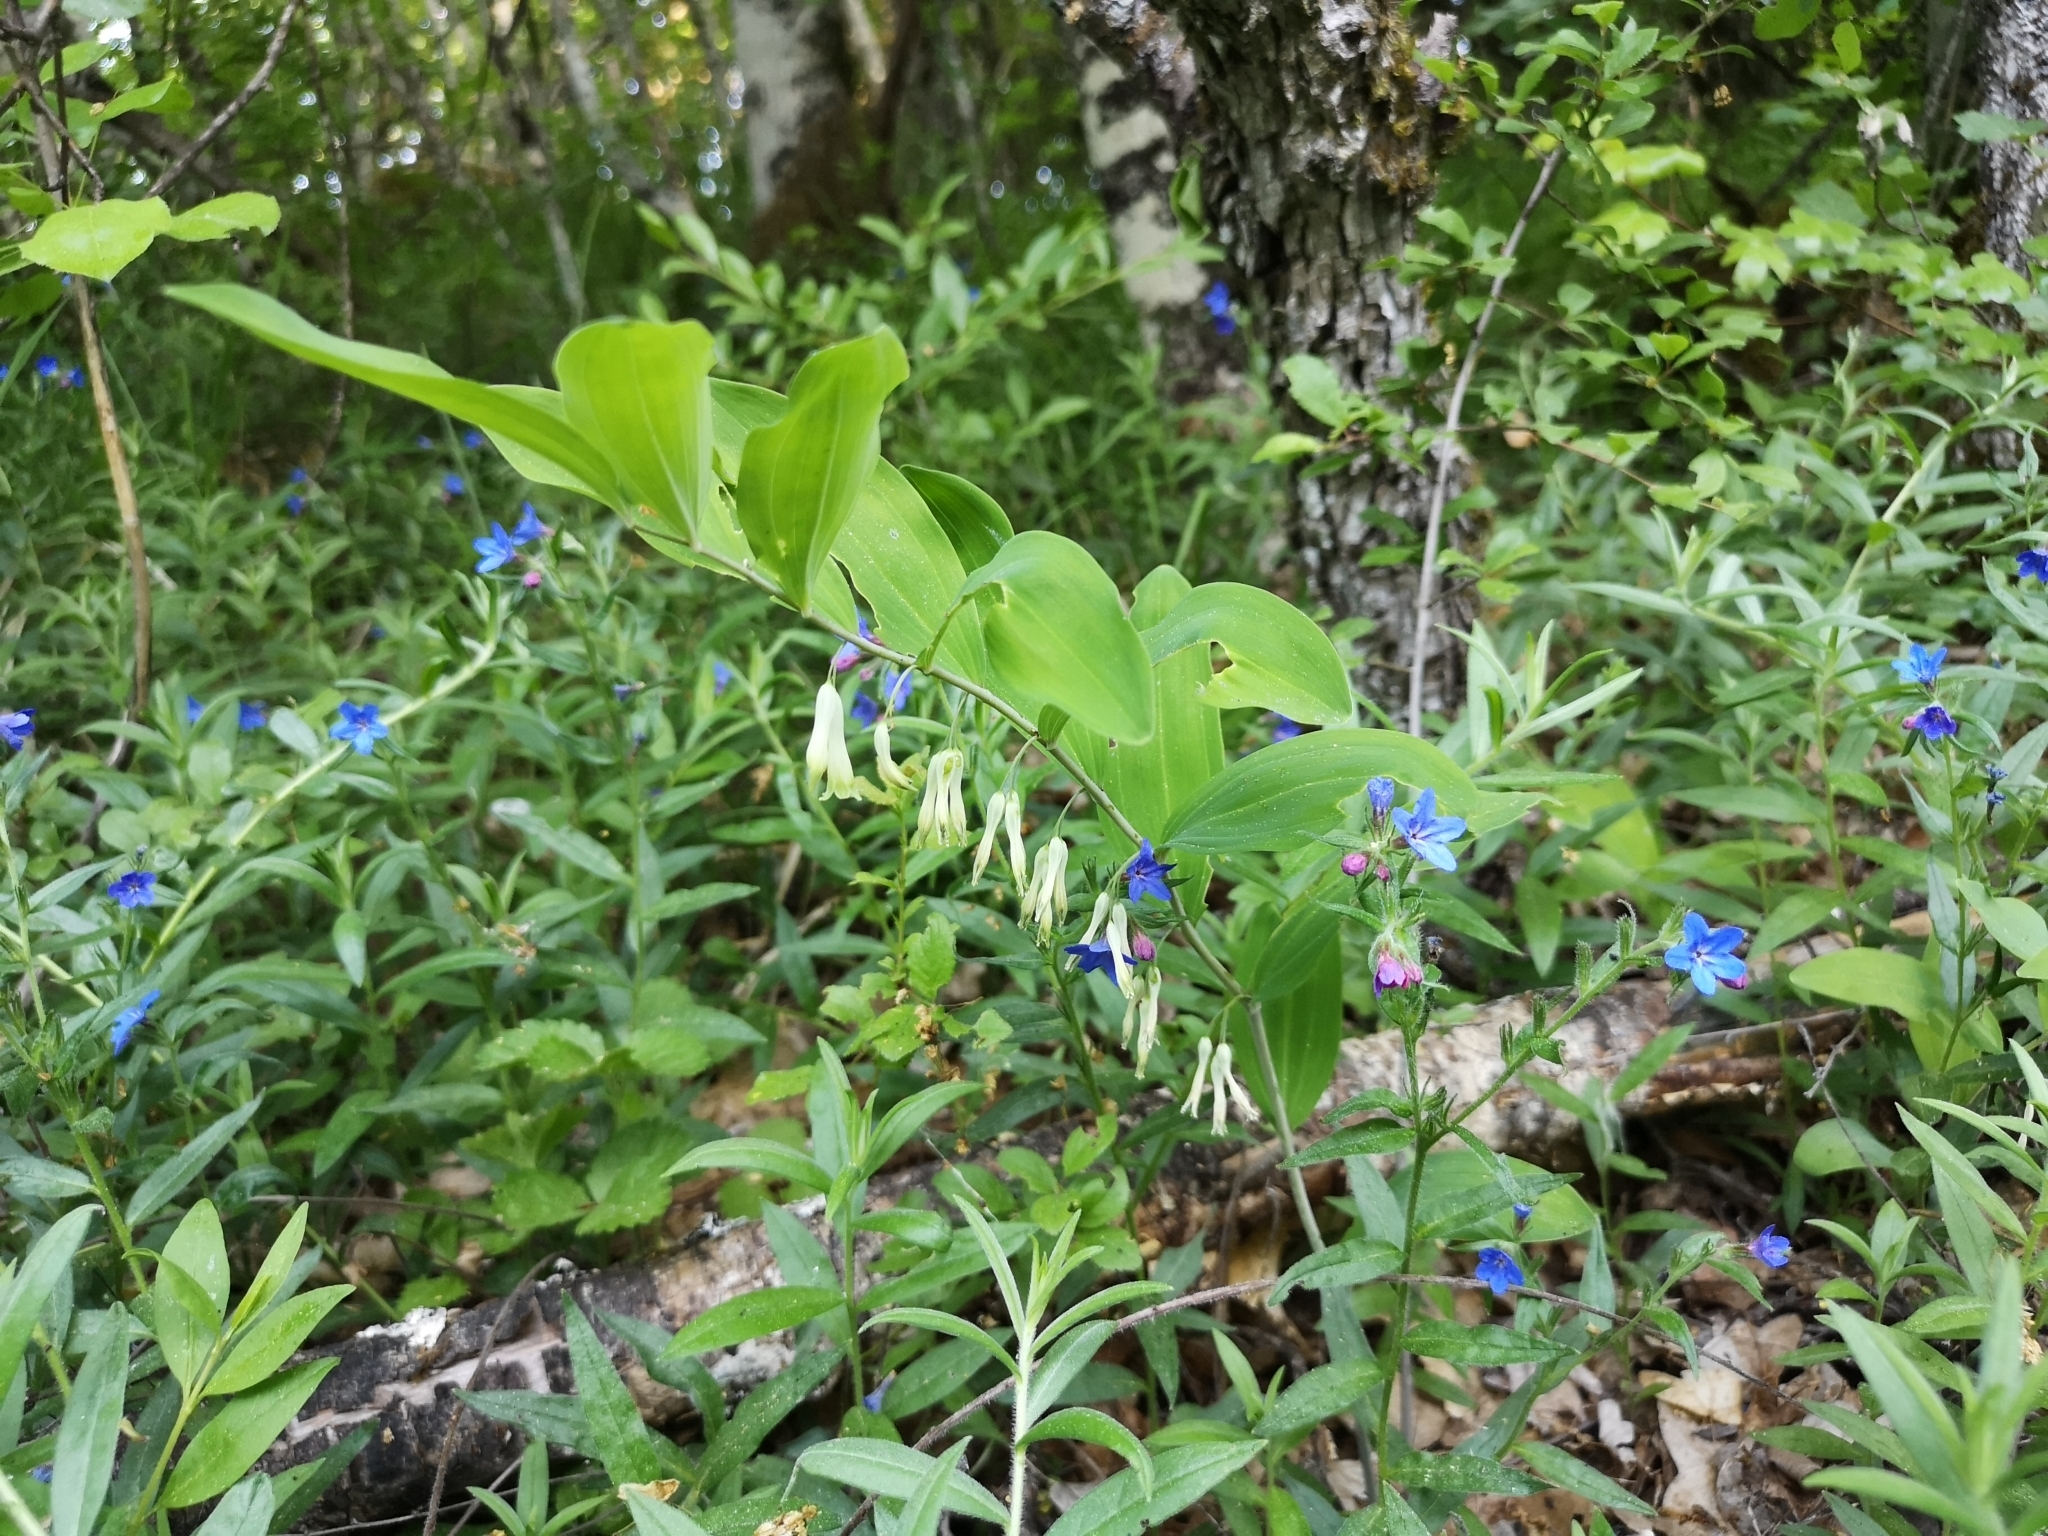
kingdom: Plantae
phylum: Tracheophyta
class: Liliopsida
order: Asparagales
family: Asparagaceae
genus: Polygonatum
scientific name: Polygonatum multiflorum
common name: Solomon's-seal
